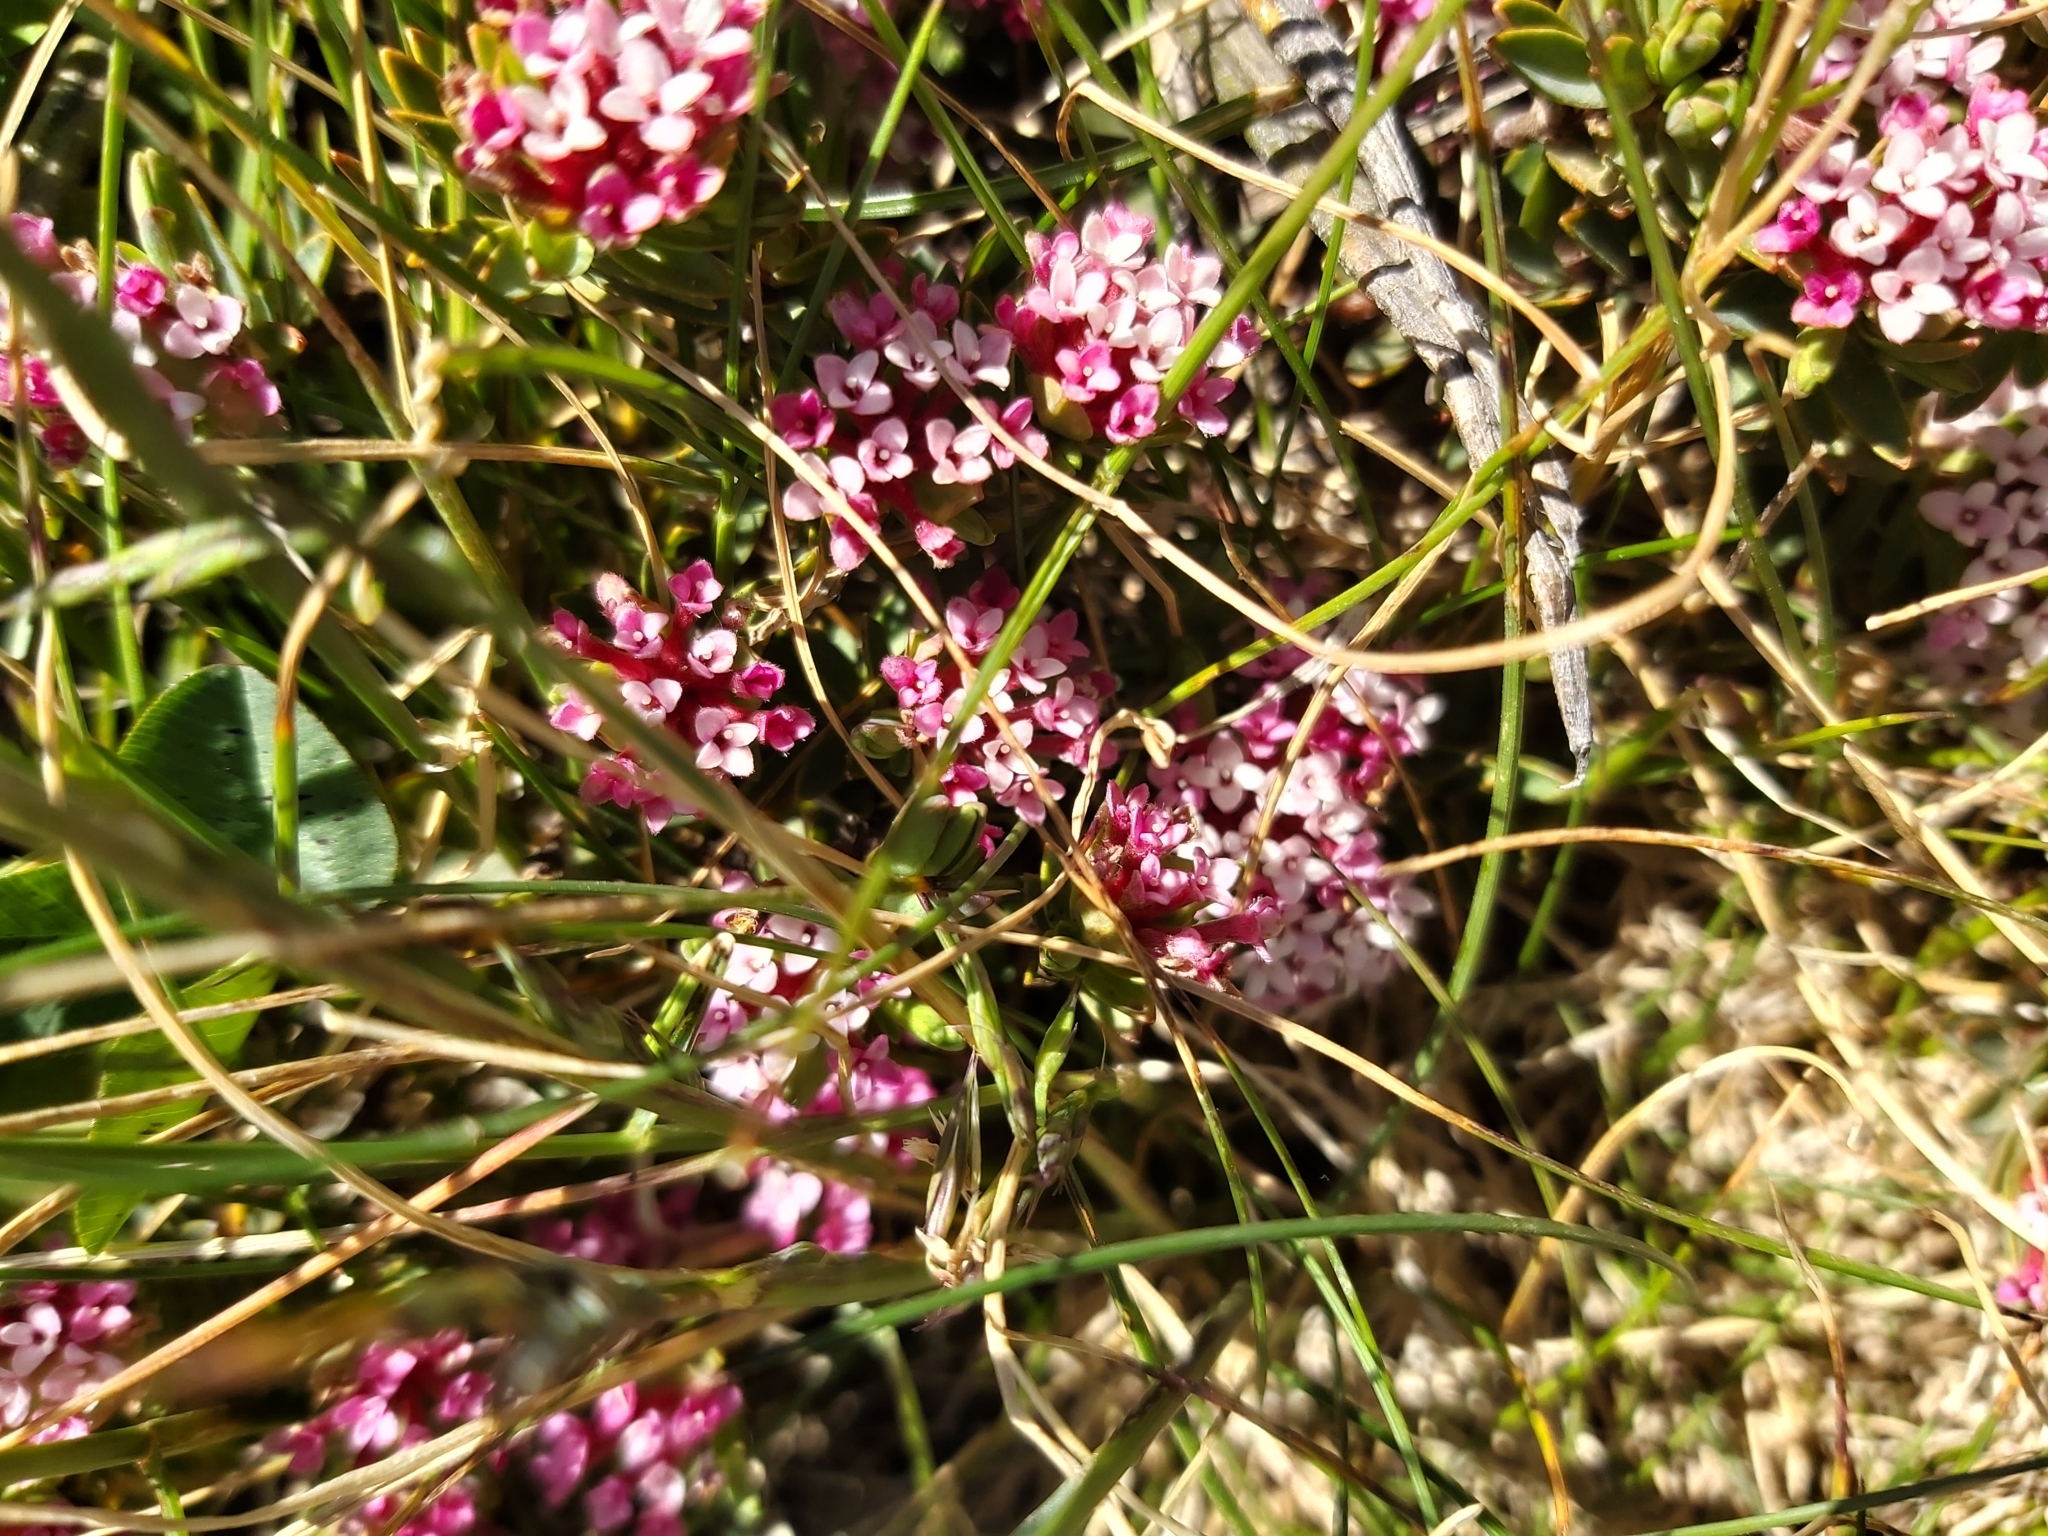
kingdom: Plantae
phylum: Tracheophyta
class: Magnoliopsida
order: Malvales
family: Thymelaeaceae
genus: Pimelea
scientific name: Pimelea alpina
